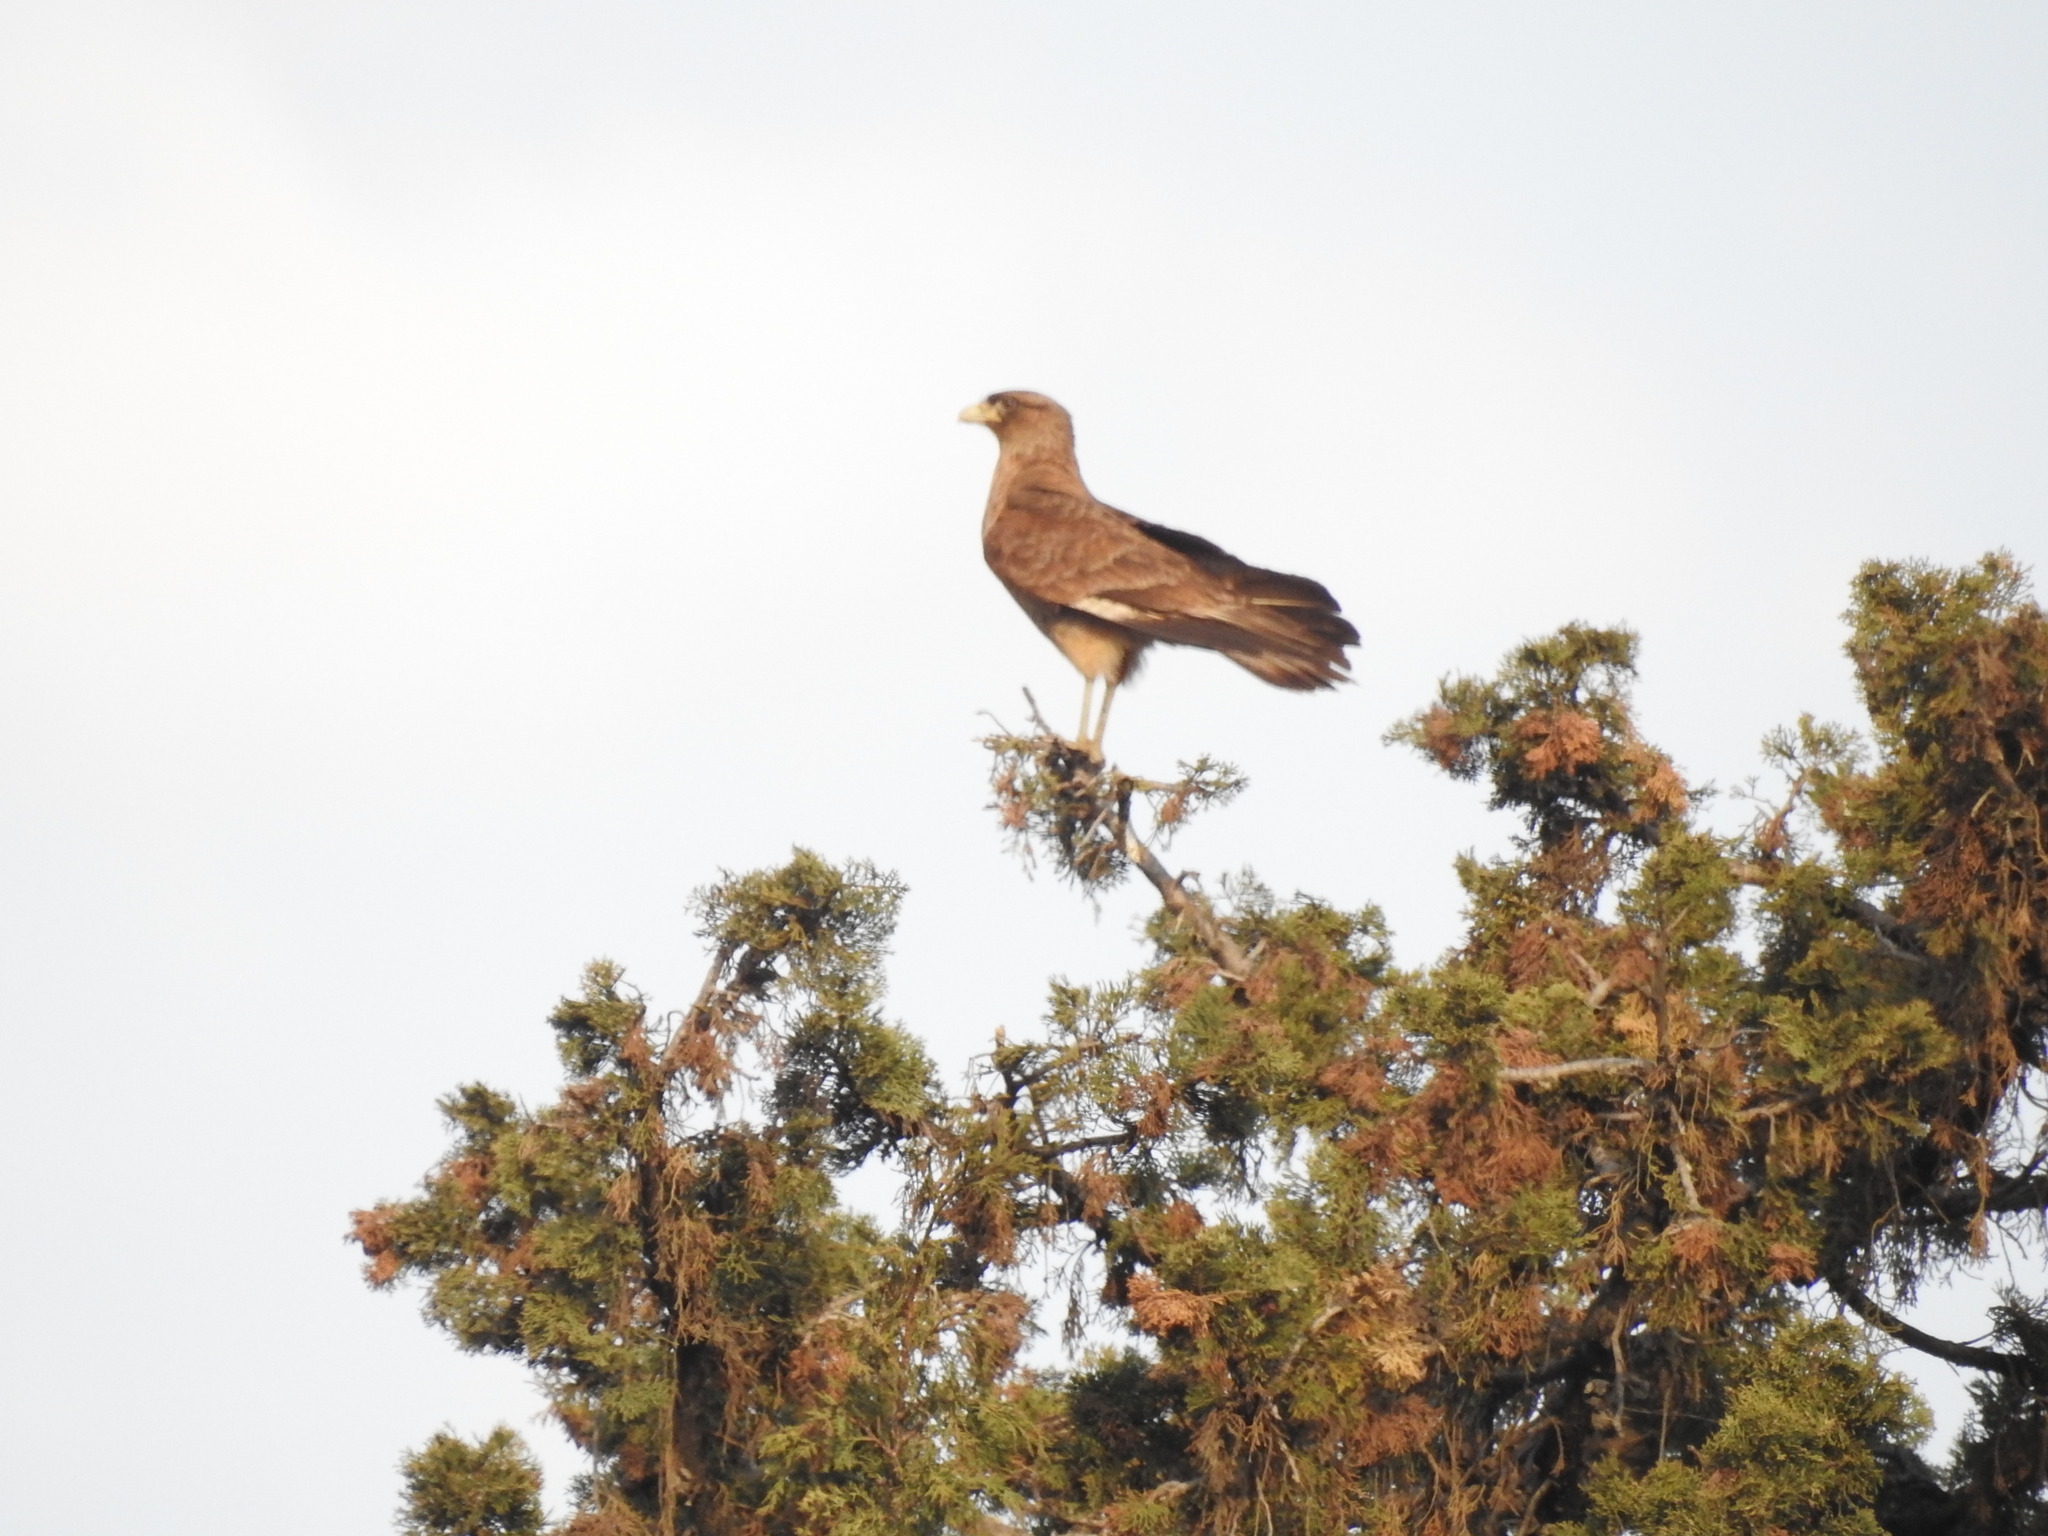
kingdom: Animalia
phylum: Chordata
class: Aves
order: Falconiformes
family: Falconidae
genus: Daptrius
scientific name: Daptrius
